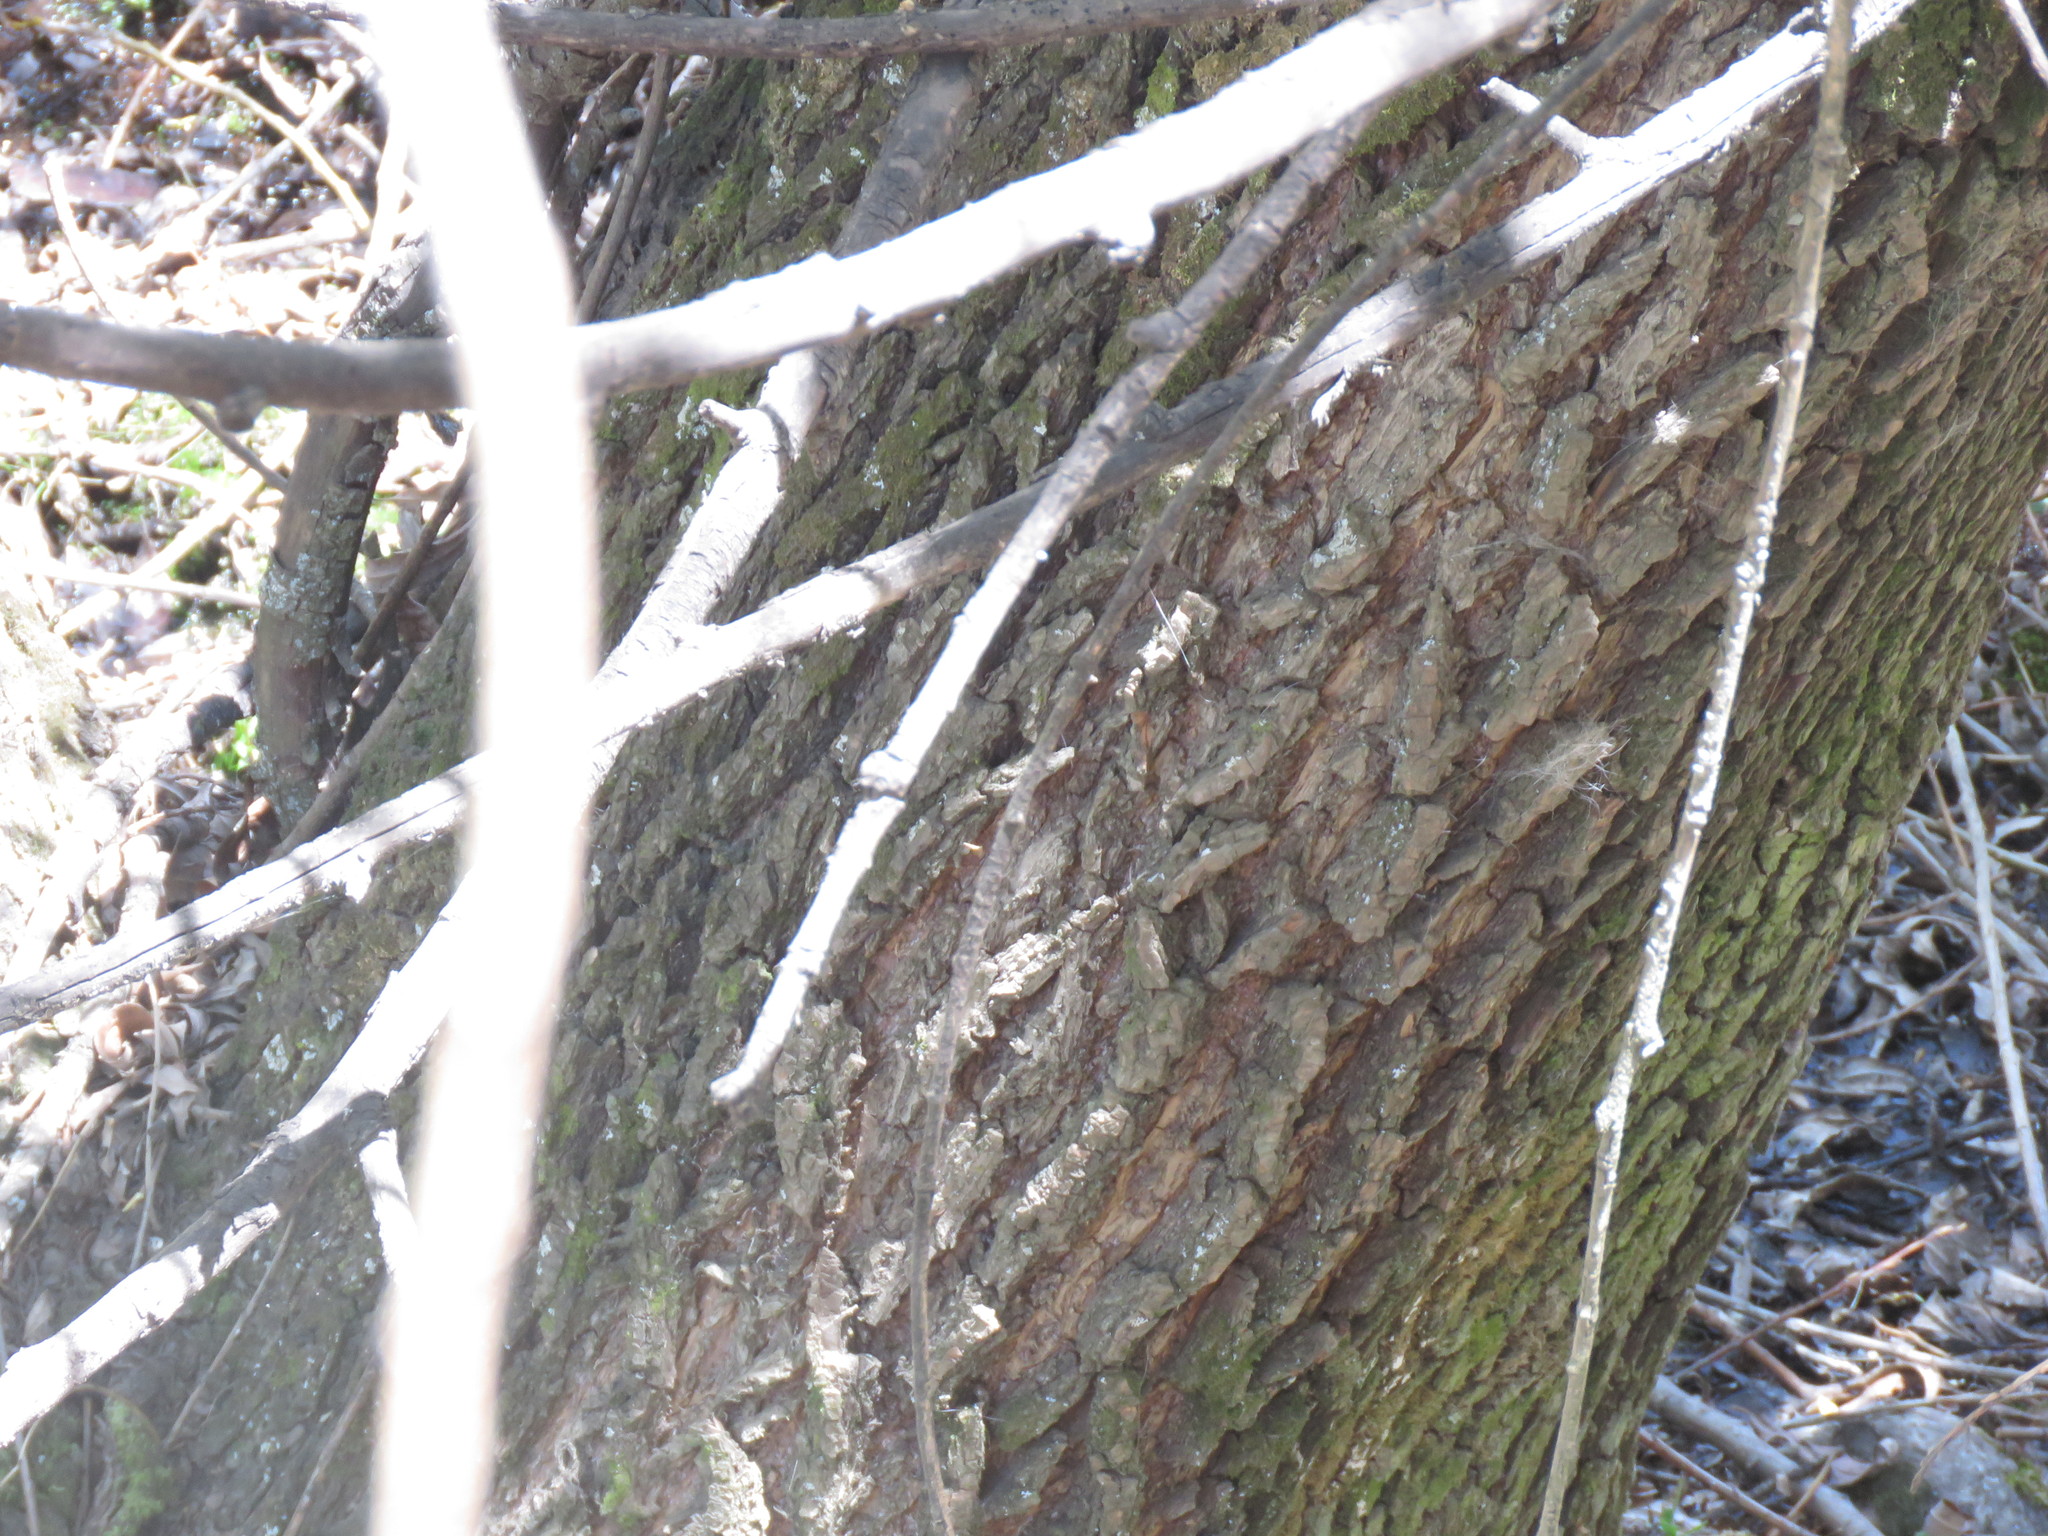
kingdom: Plantae
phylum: Tracheophyta
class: Magnoliopsida
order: Malpighiales
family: Salicaceae
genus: Salix
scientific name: Salix humboldtiana
